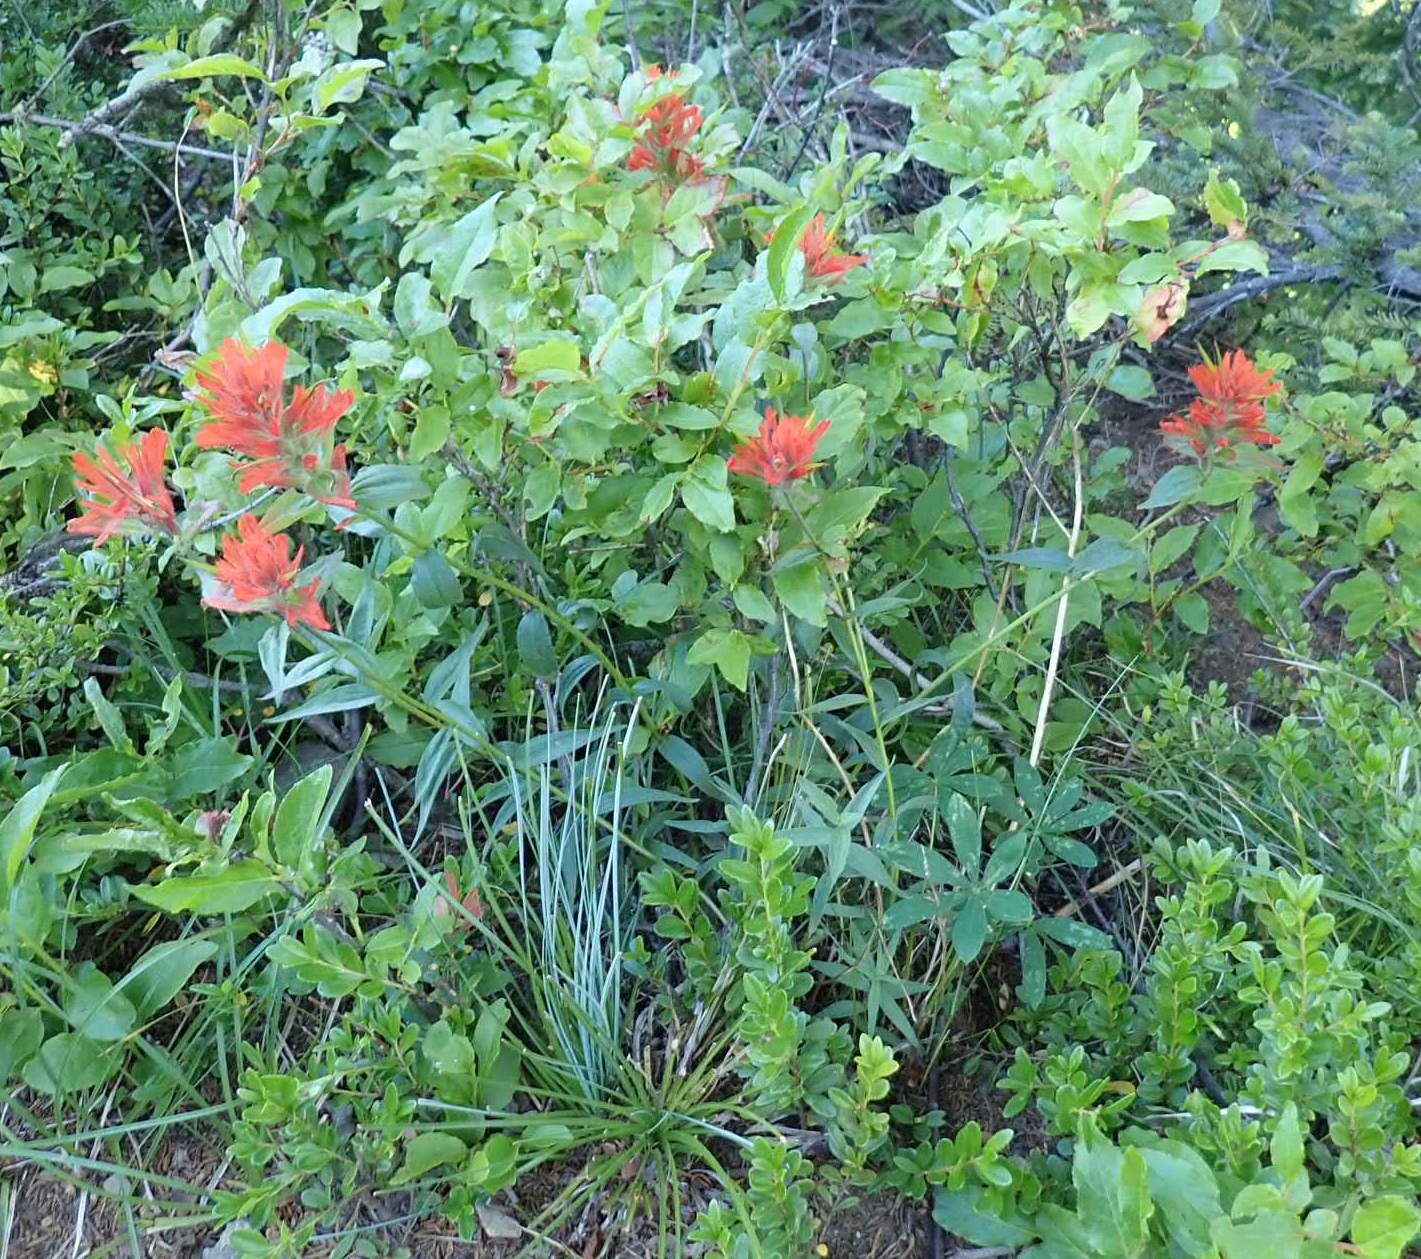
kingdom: Plantae
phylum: Tracheophyta
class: Magnoliopsida
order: Lamiales
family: Orobanchaceae
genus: Castilleja
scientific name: Castilleja miniata
